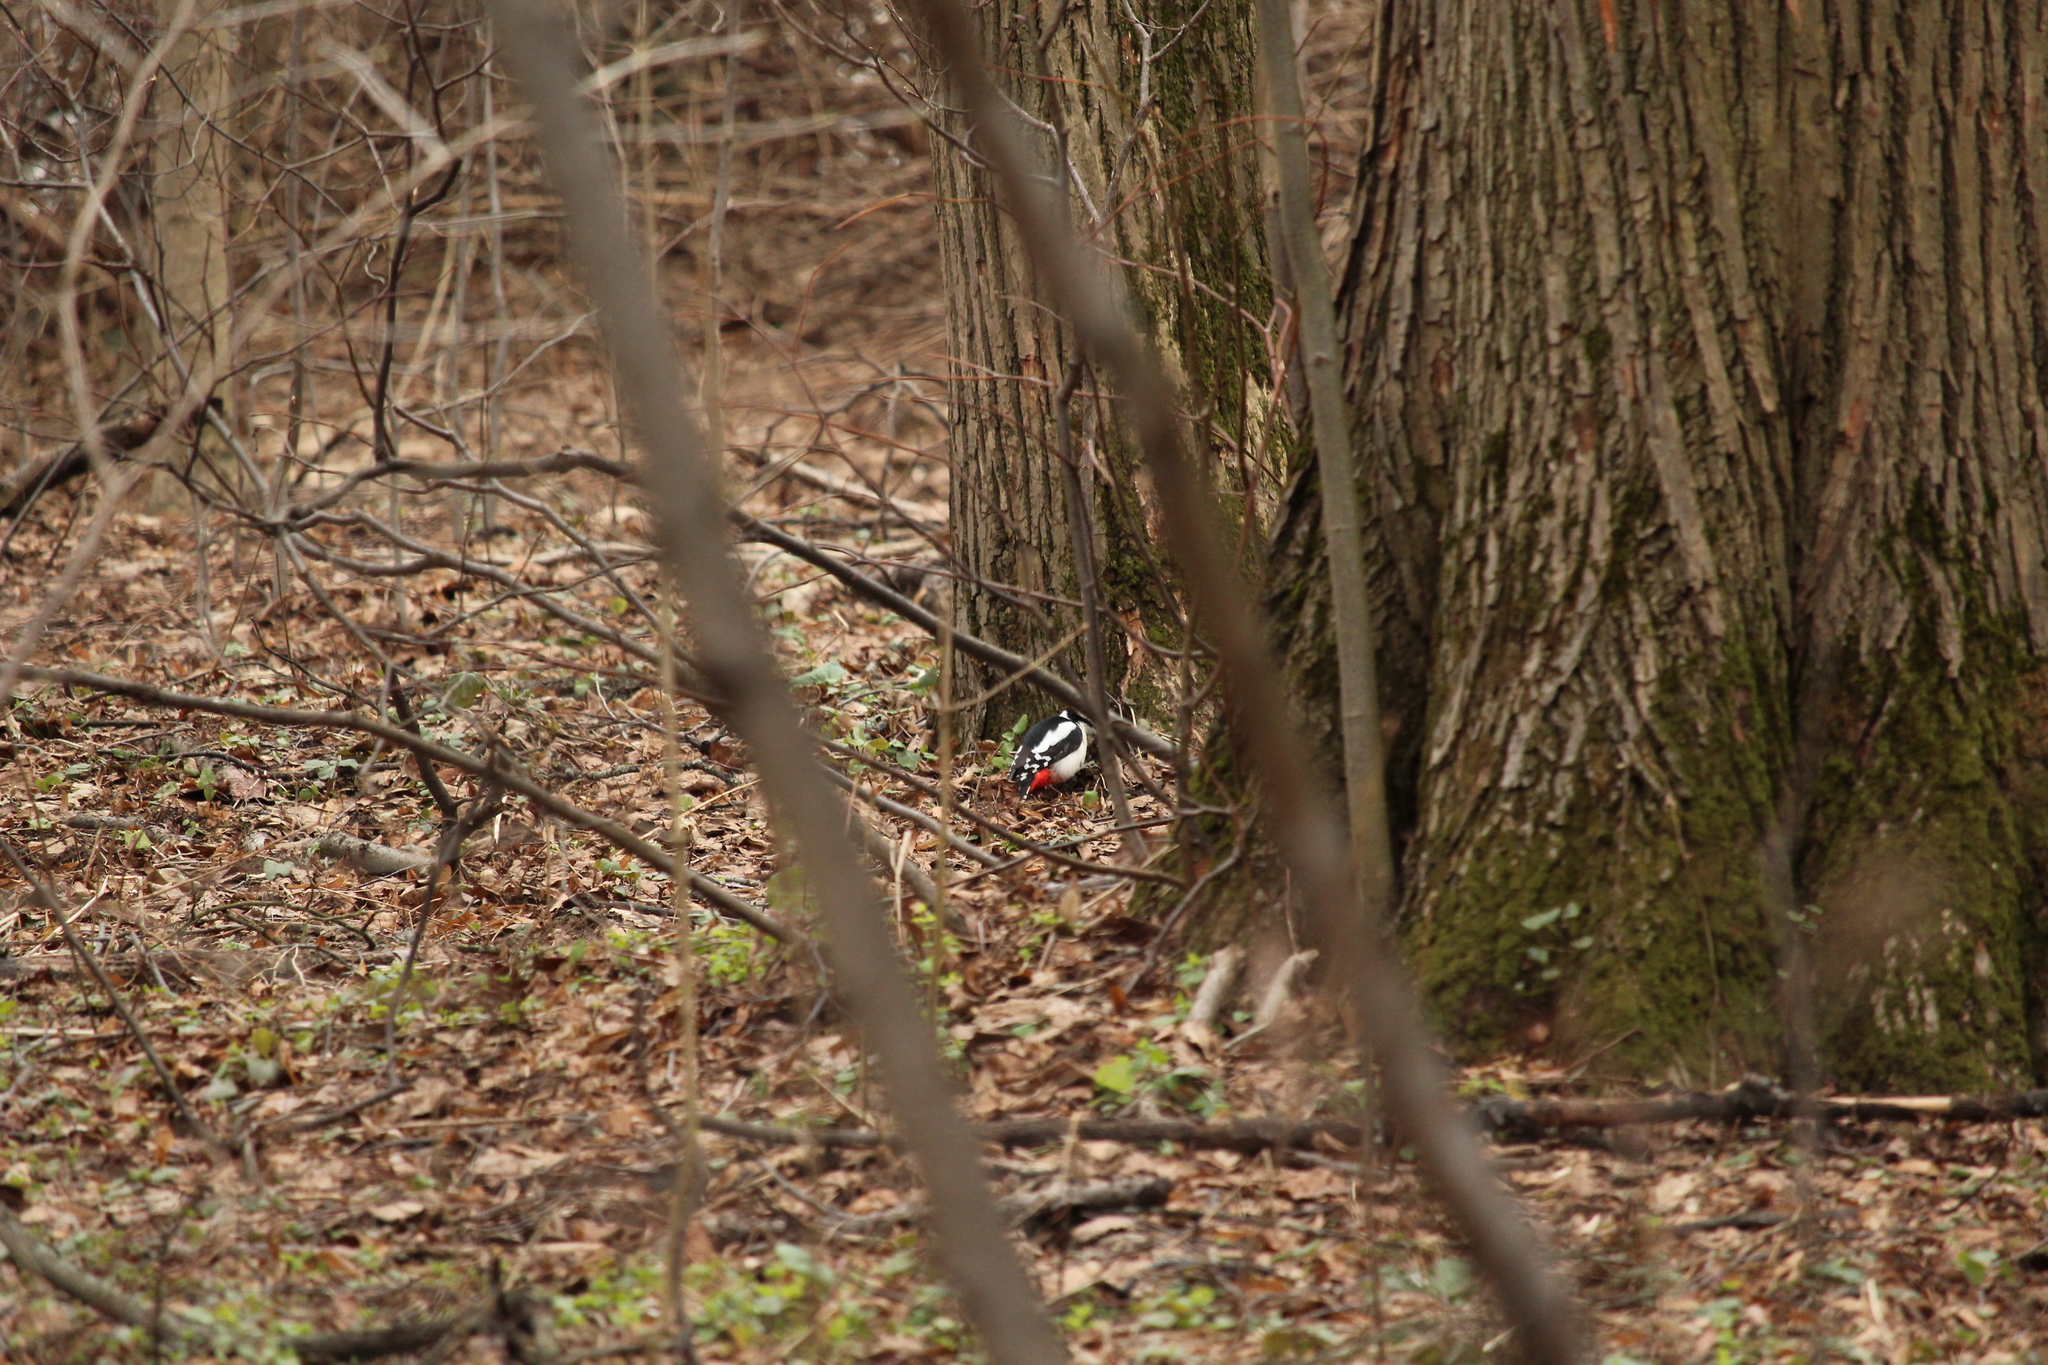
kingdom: Animalia
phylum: Chordata
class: Aves
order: Piciformes
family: Picidae
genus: Dendrocopos
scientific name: Dendrocopos major
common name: Great spotted woodpecker
